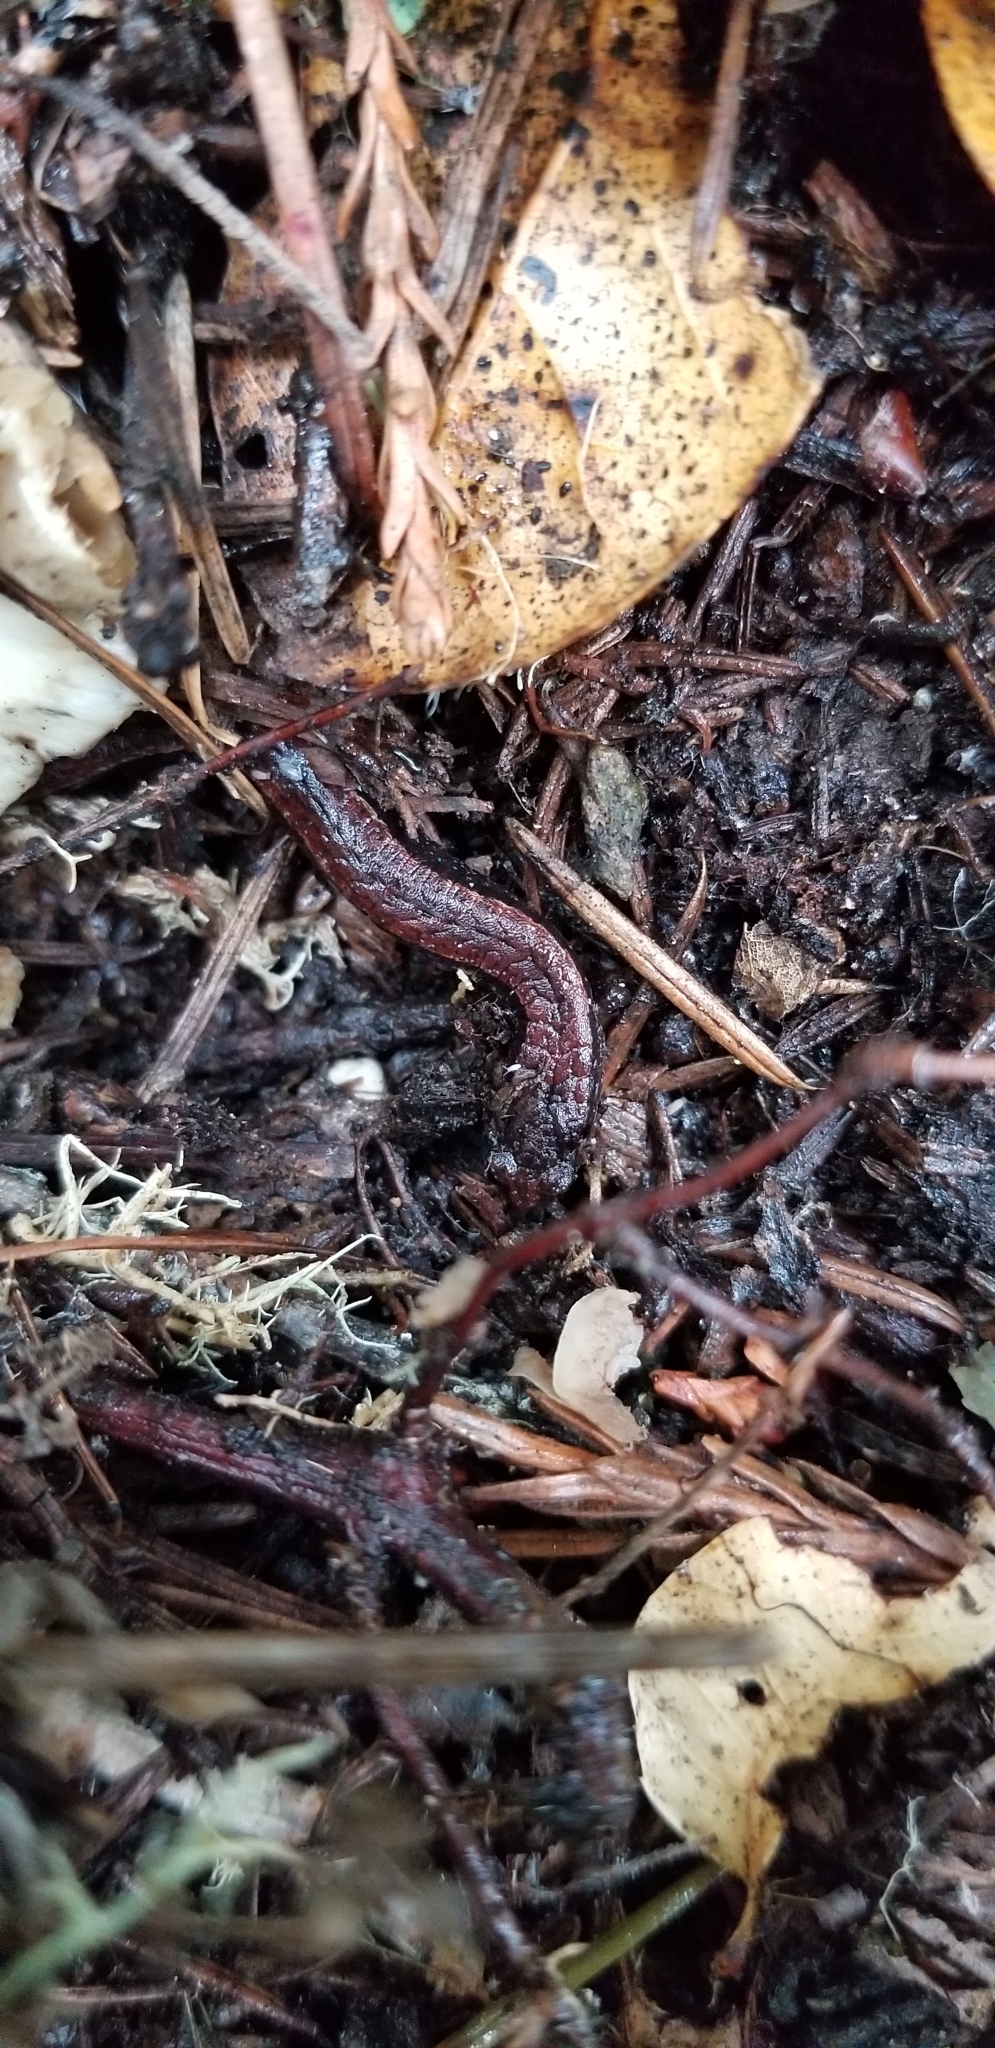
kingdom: Animalia
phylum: Chordata
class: Amphibia
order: Caudata
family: Plethodontidae
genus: Batrachoseps
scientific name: Batrachoseps attenuatus
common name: California slender salamander
